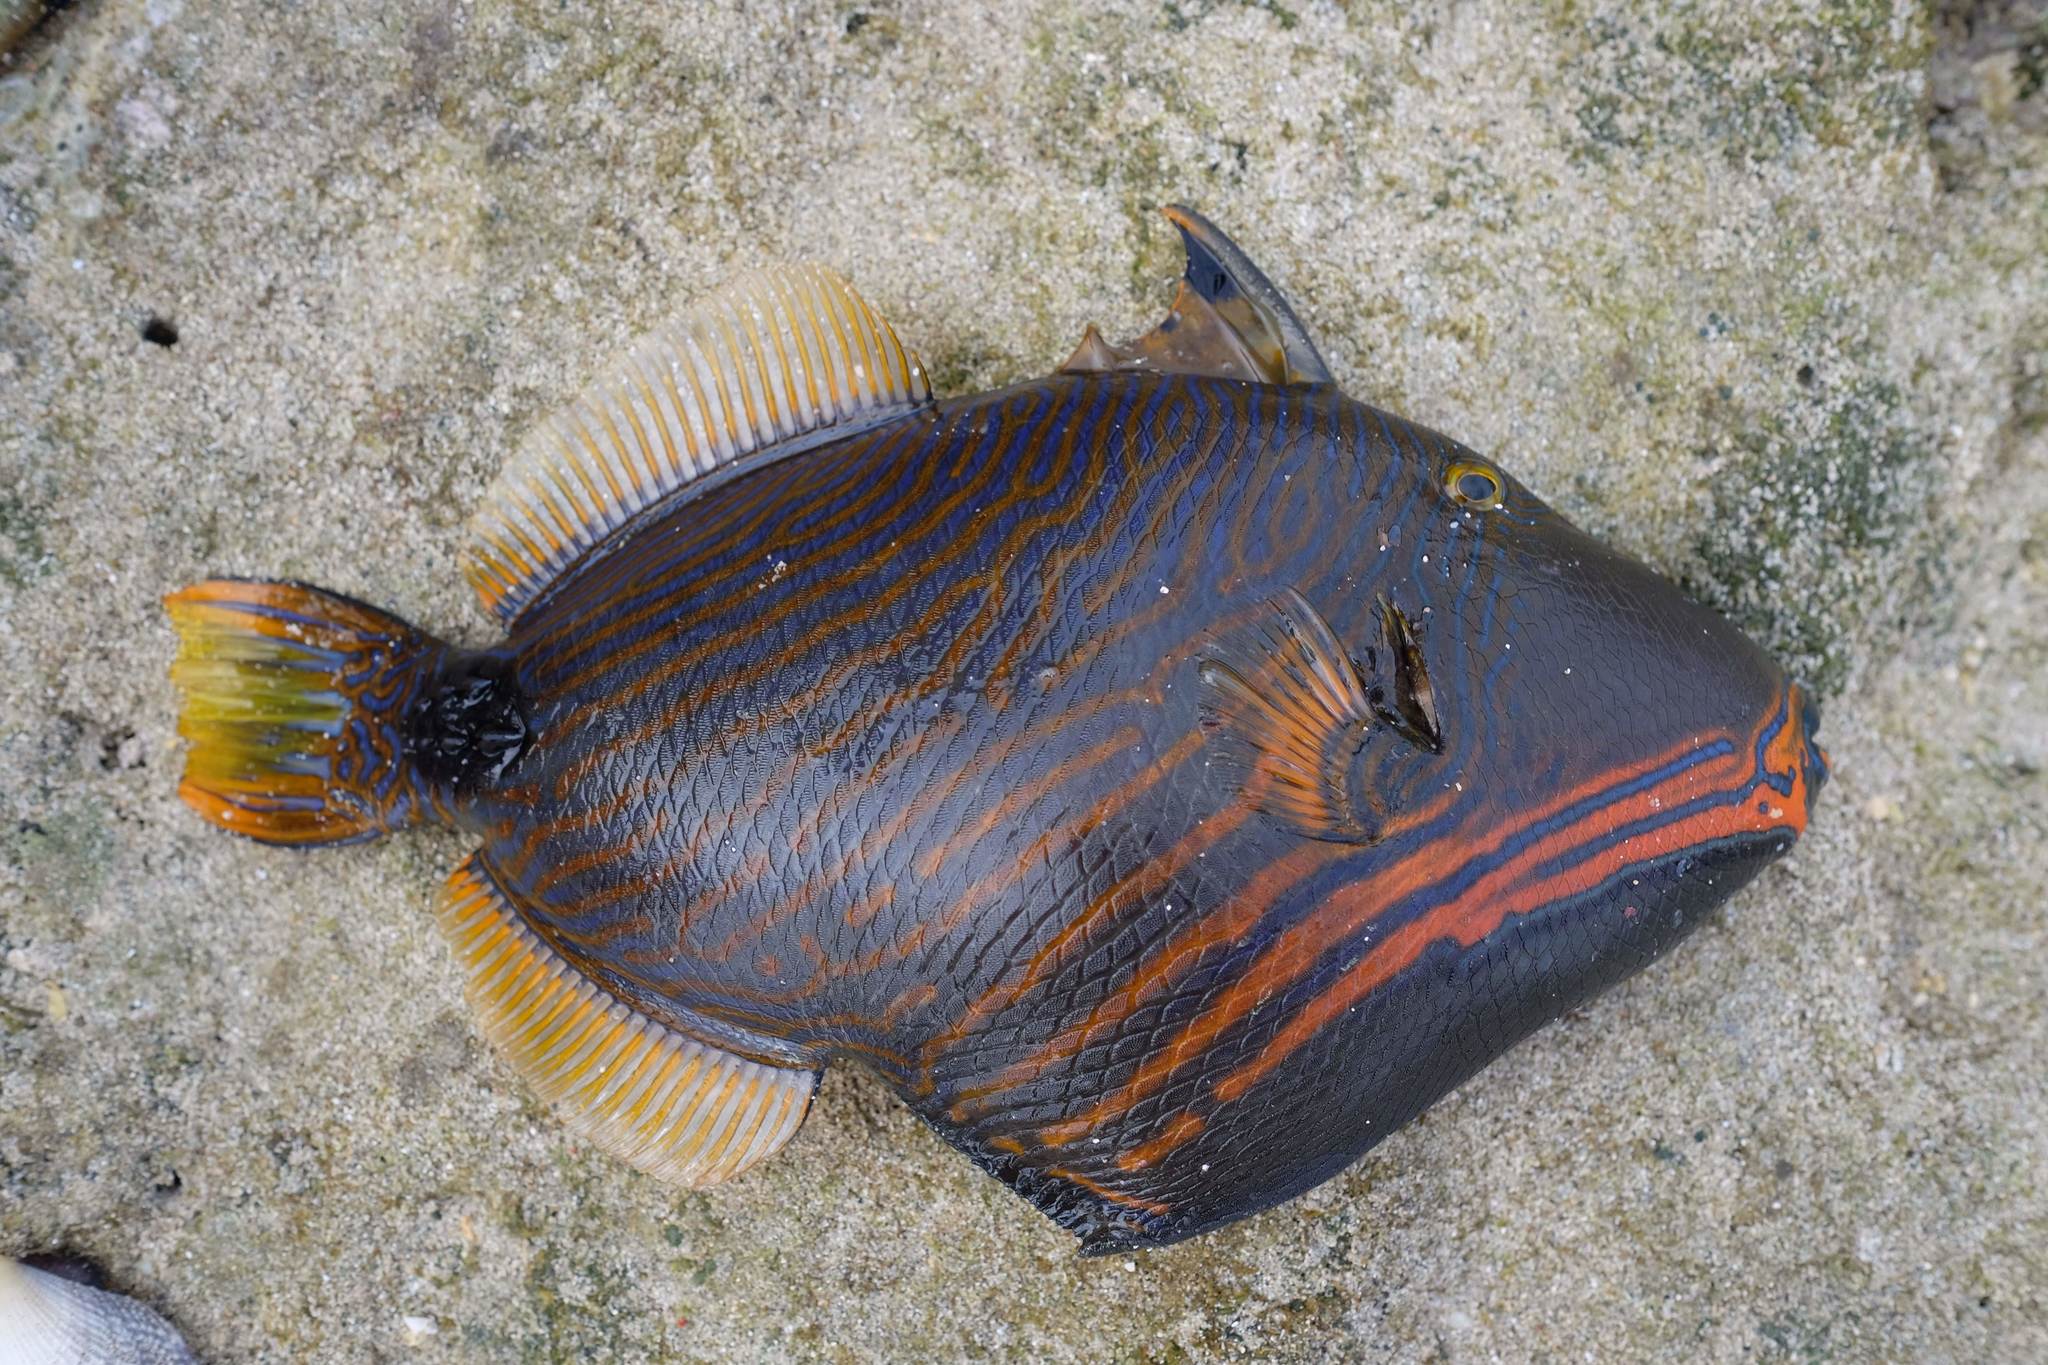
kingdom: Animalia
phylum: Chordata
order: Tetraodontiformes
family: Balistidae
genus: Balistapus
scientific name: Balistapus undulatus
